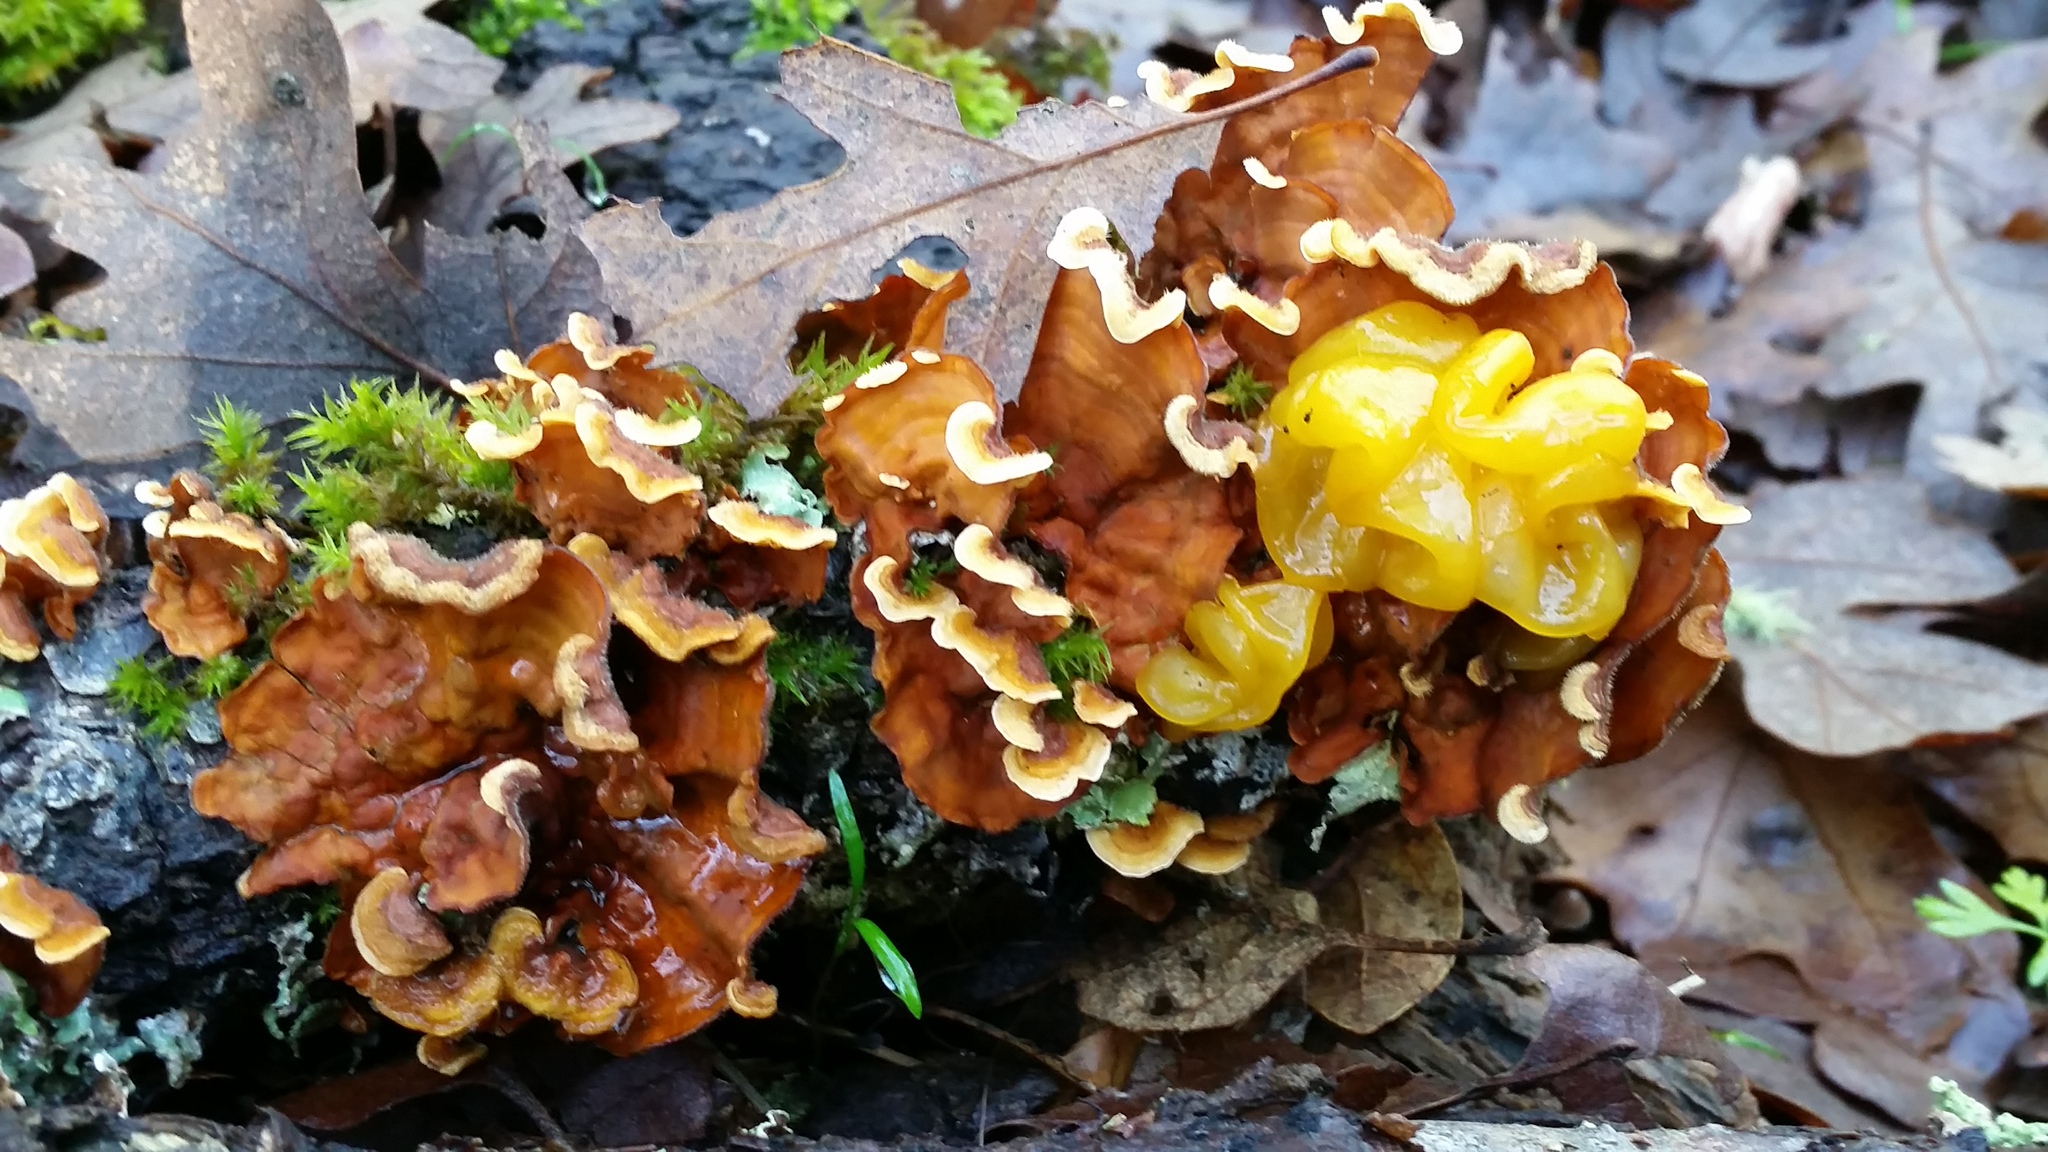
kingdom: Fungi
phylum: Basidiomycota
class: Tremellomycetes
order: Tremellales
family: Naemateliaceae
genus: Naematelia
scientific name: Naematelia aurantia
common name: Golden ear
